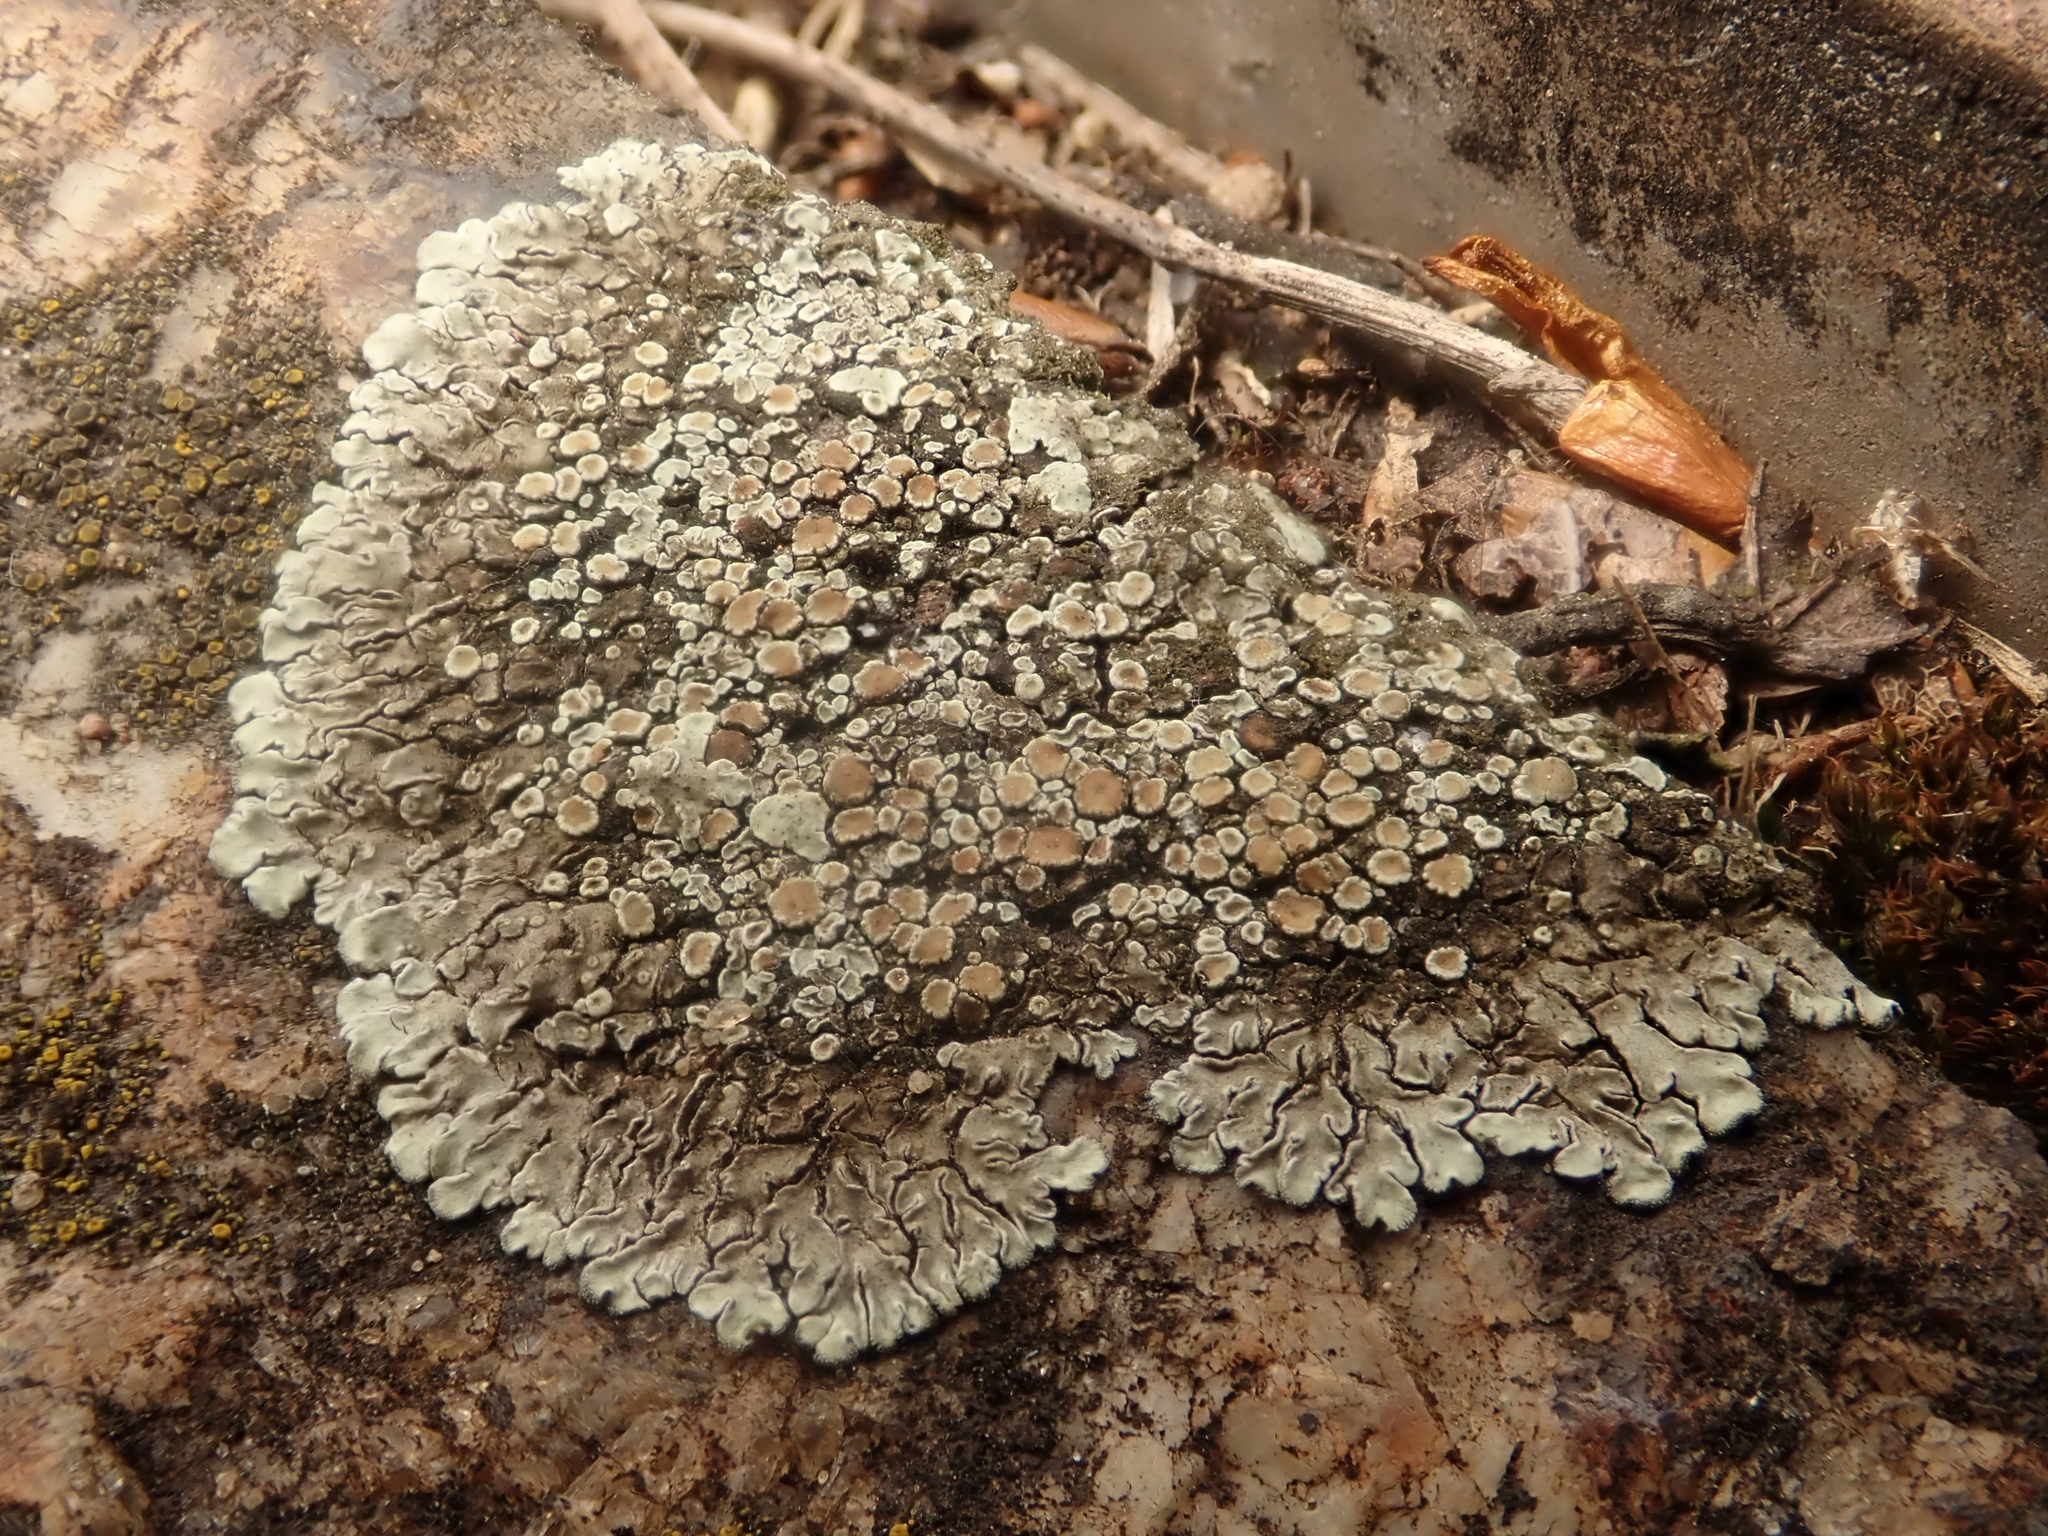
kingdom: Fungi
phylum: Ascomycota
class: Lecanoromycetes
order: Lecanorales
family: Lecanoraceae
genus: Protoparmeliopsis
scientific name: Protoparmeliopsis muralis
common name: Stonewall rim lichen
